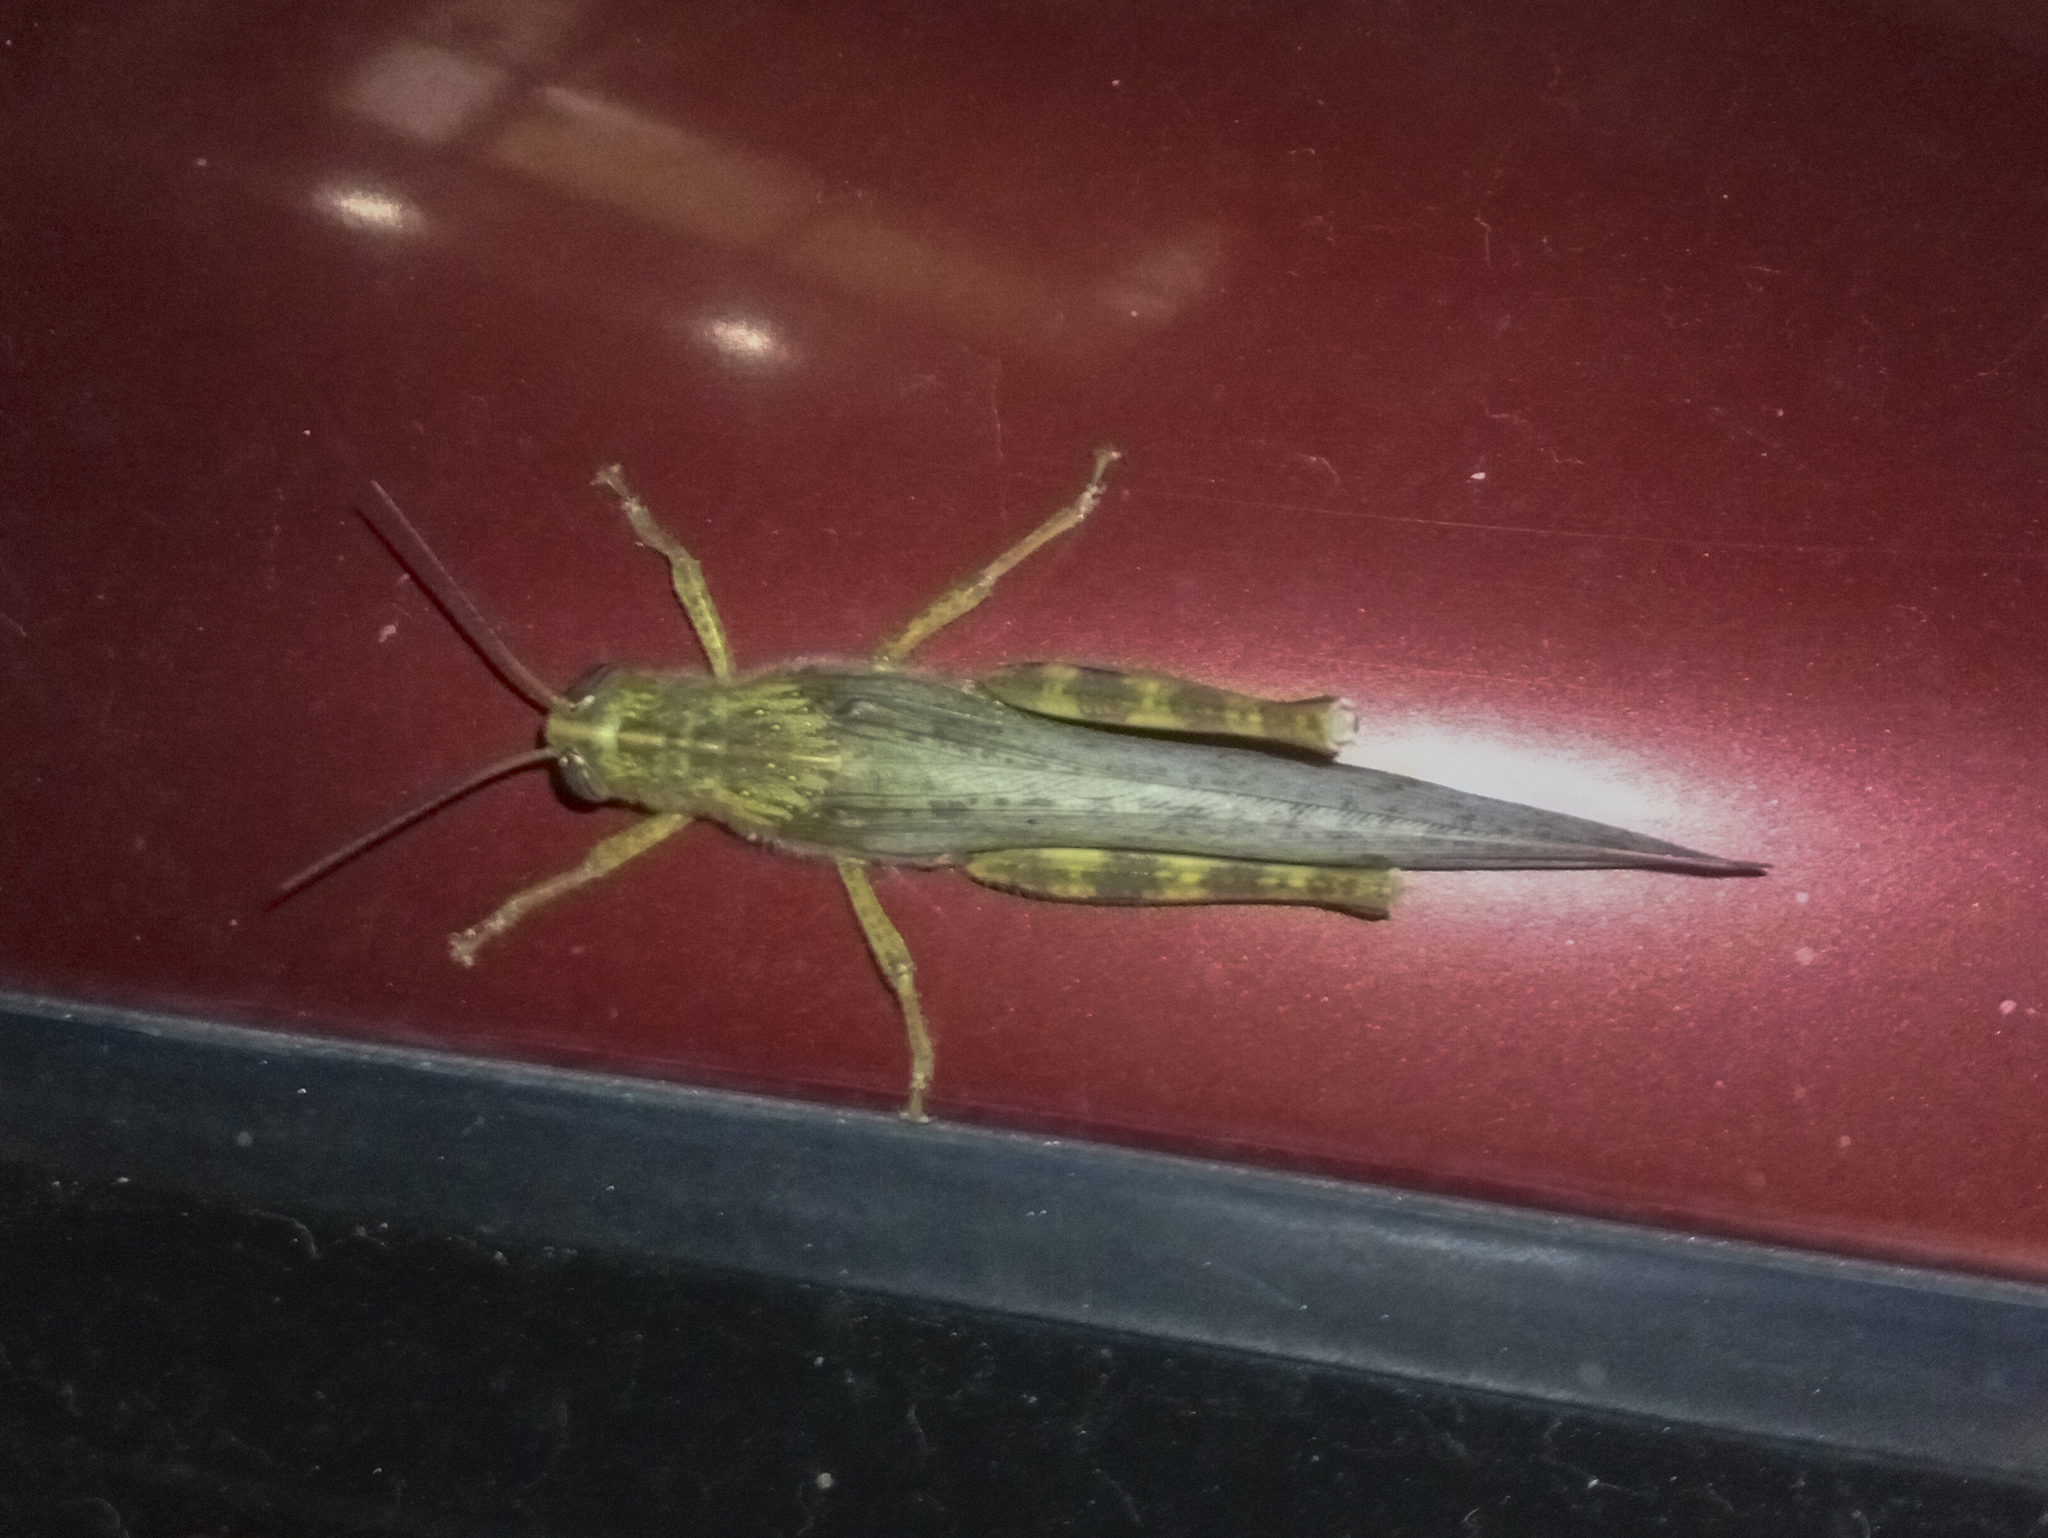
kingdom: Animalia
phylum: Arthropoda
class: Insecta
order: Orthoptera
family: Acrididae
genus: Anacridium
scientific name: Anacridium aegyptium
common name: Egyptian grasshopper
